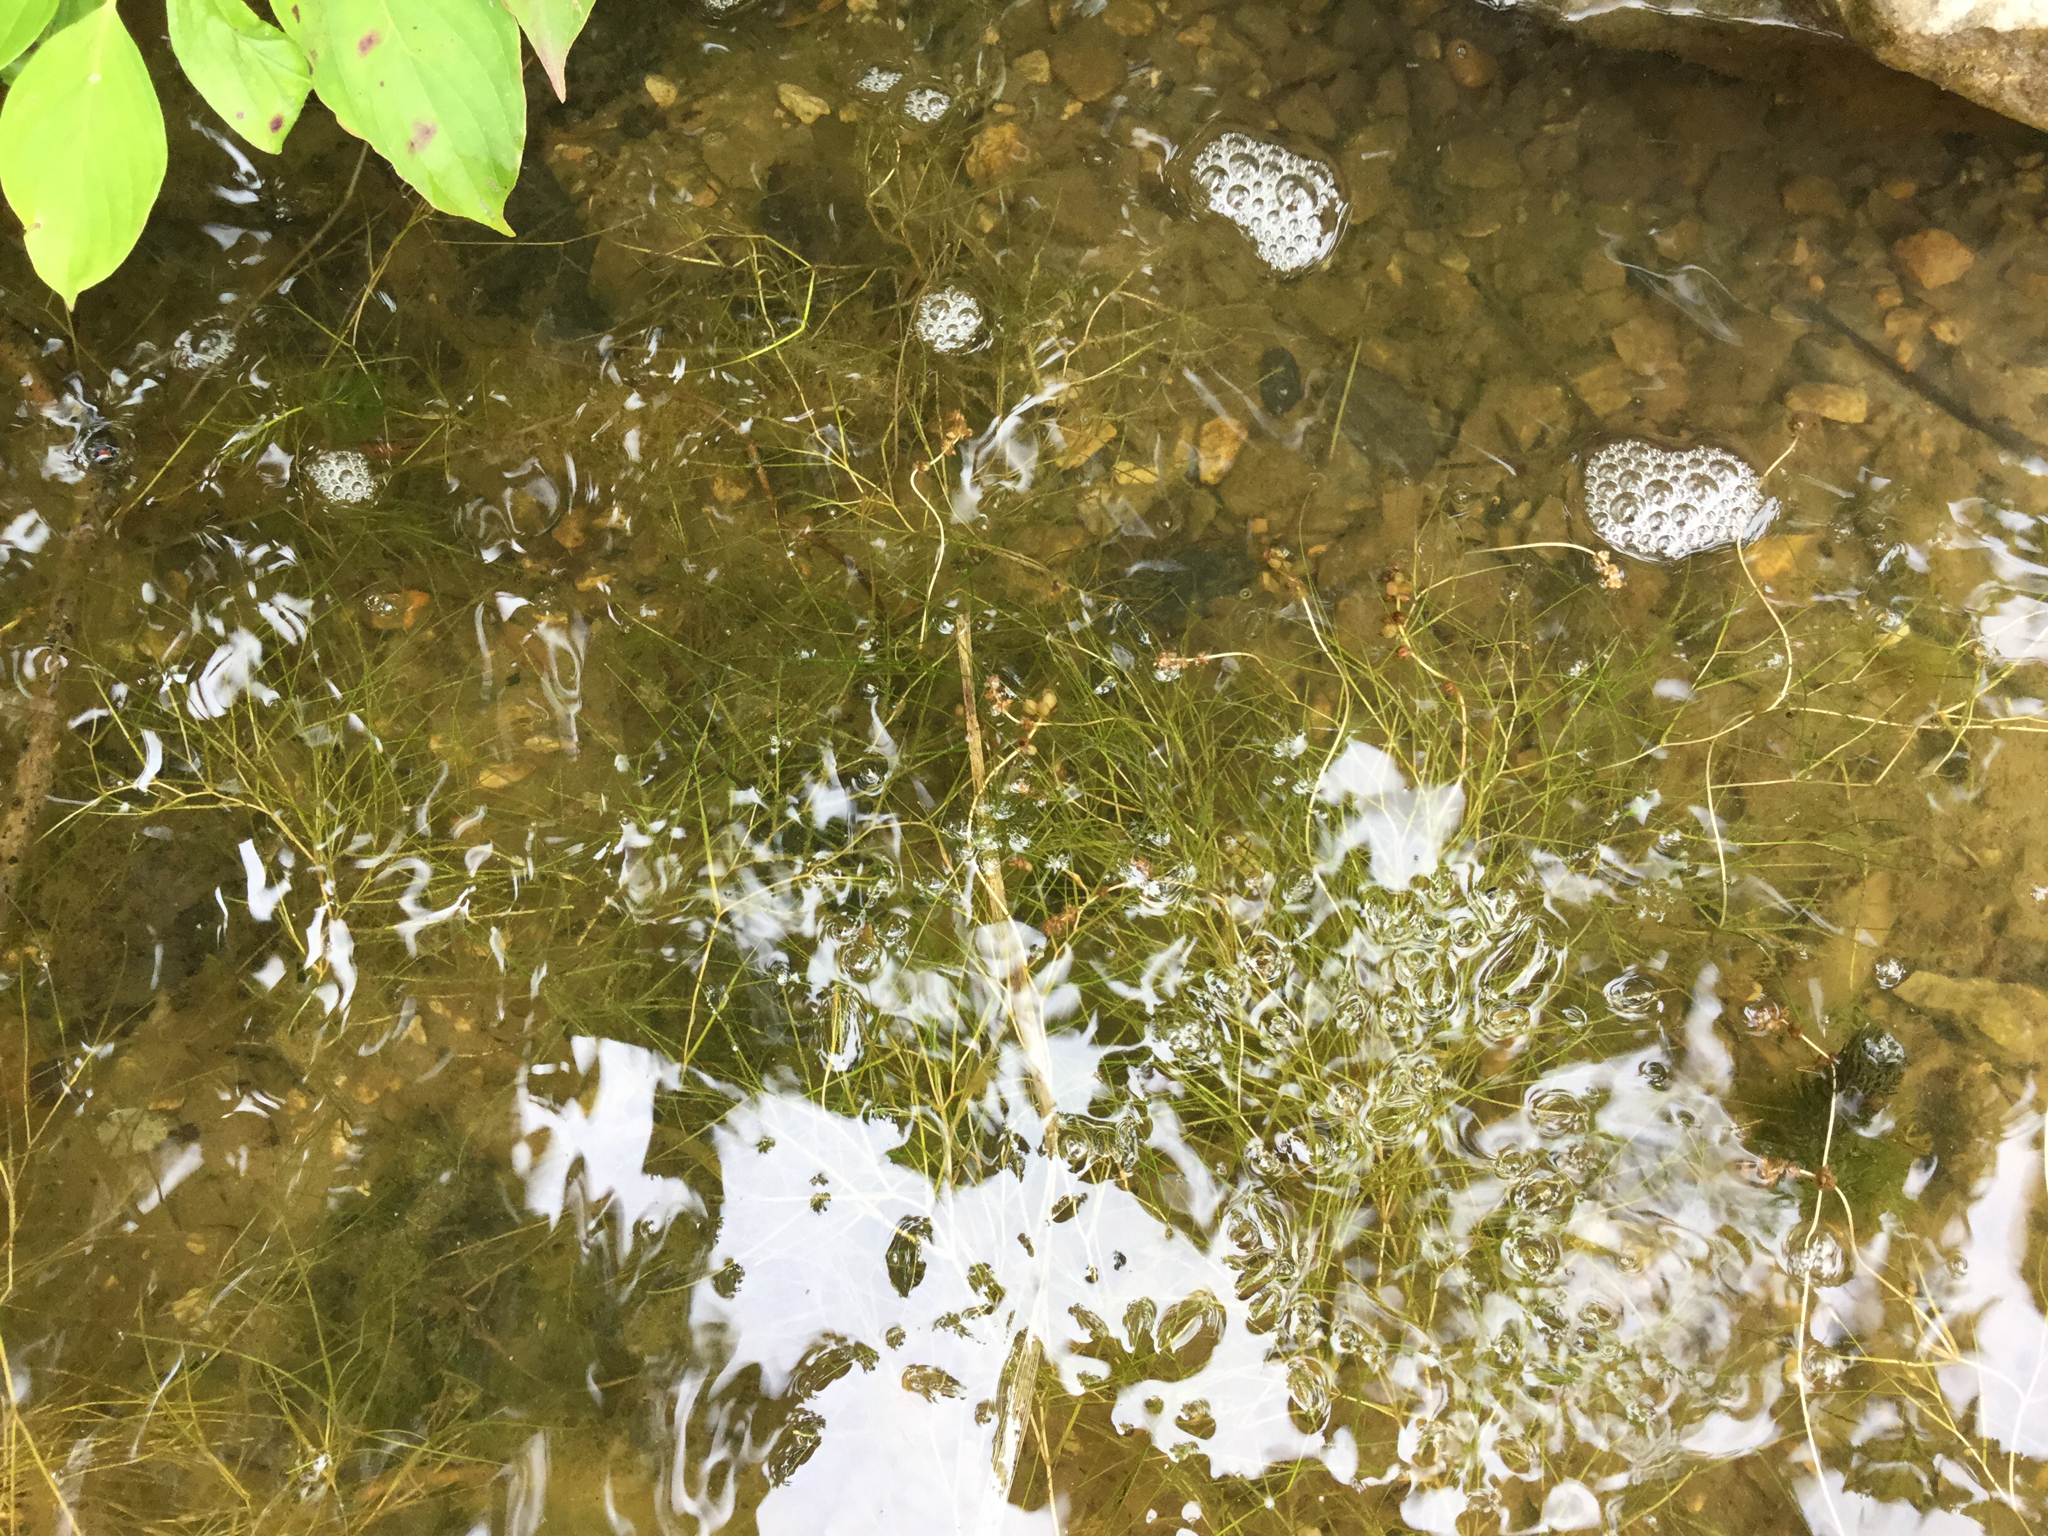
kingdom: Plantae
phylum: Tracheophyta
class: Liliopsida
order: Alismatales
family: Potamogetonaceae
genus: Stuckenia
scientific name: Stuckenia pectinata
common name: Sago pondweed
